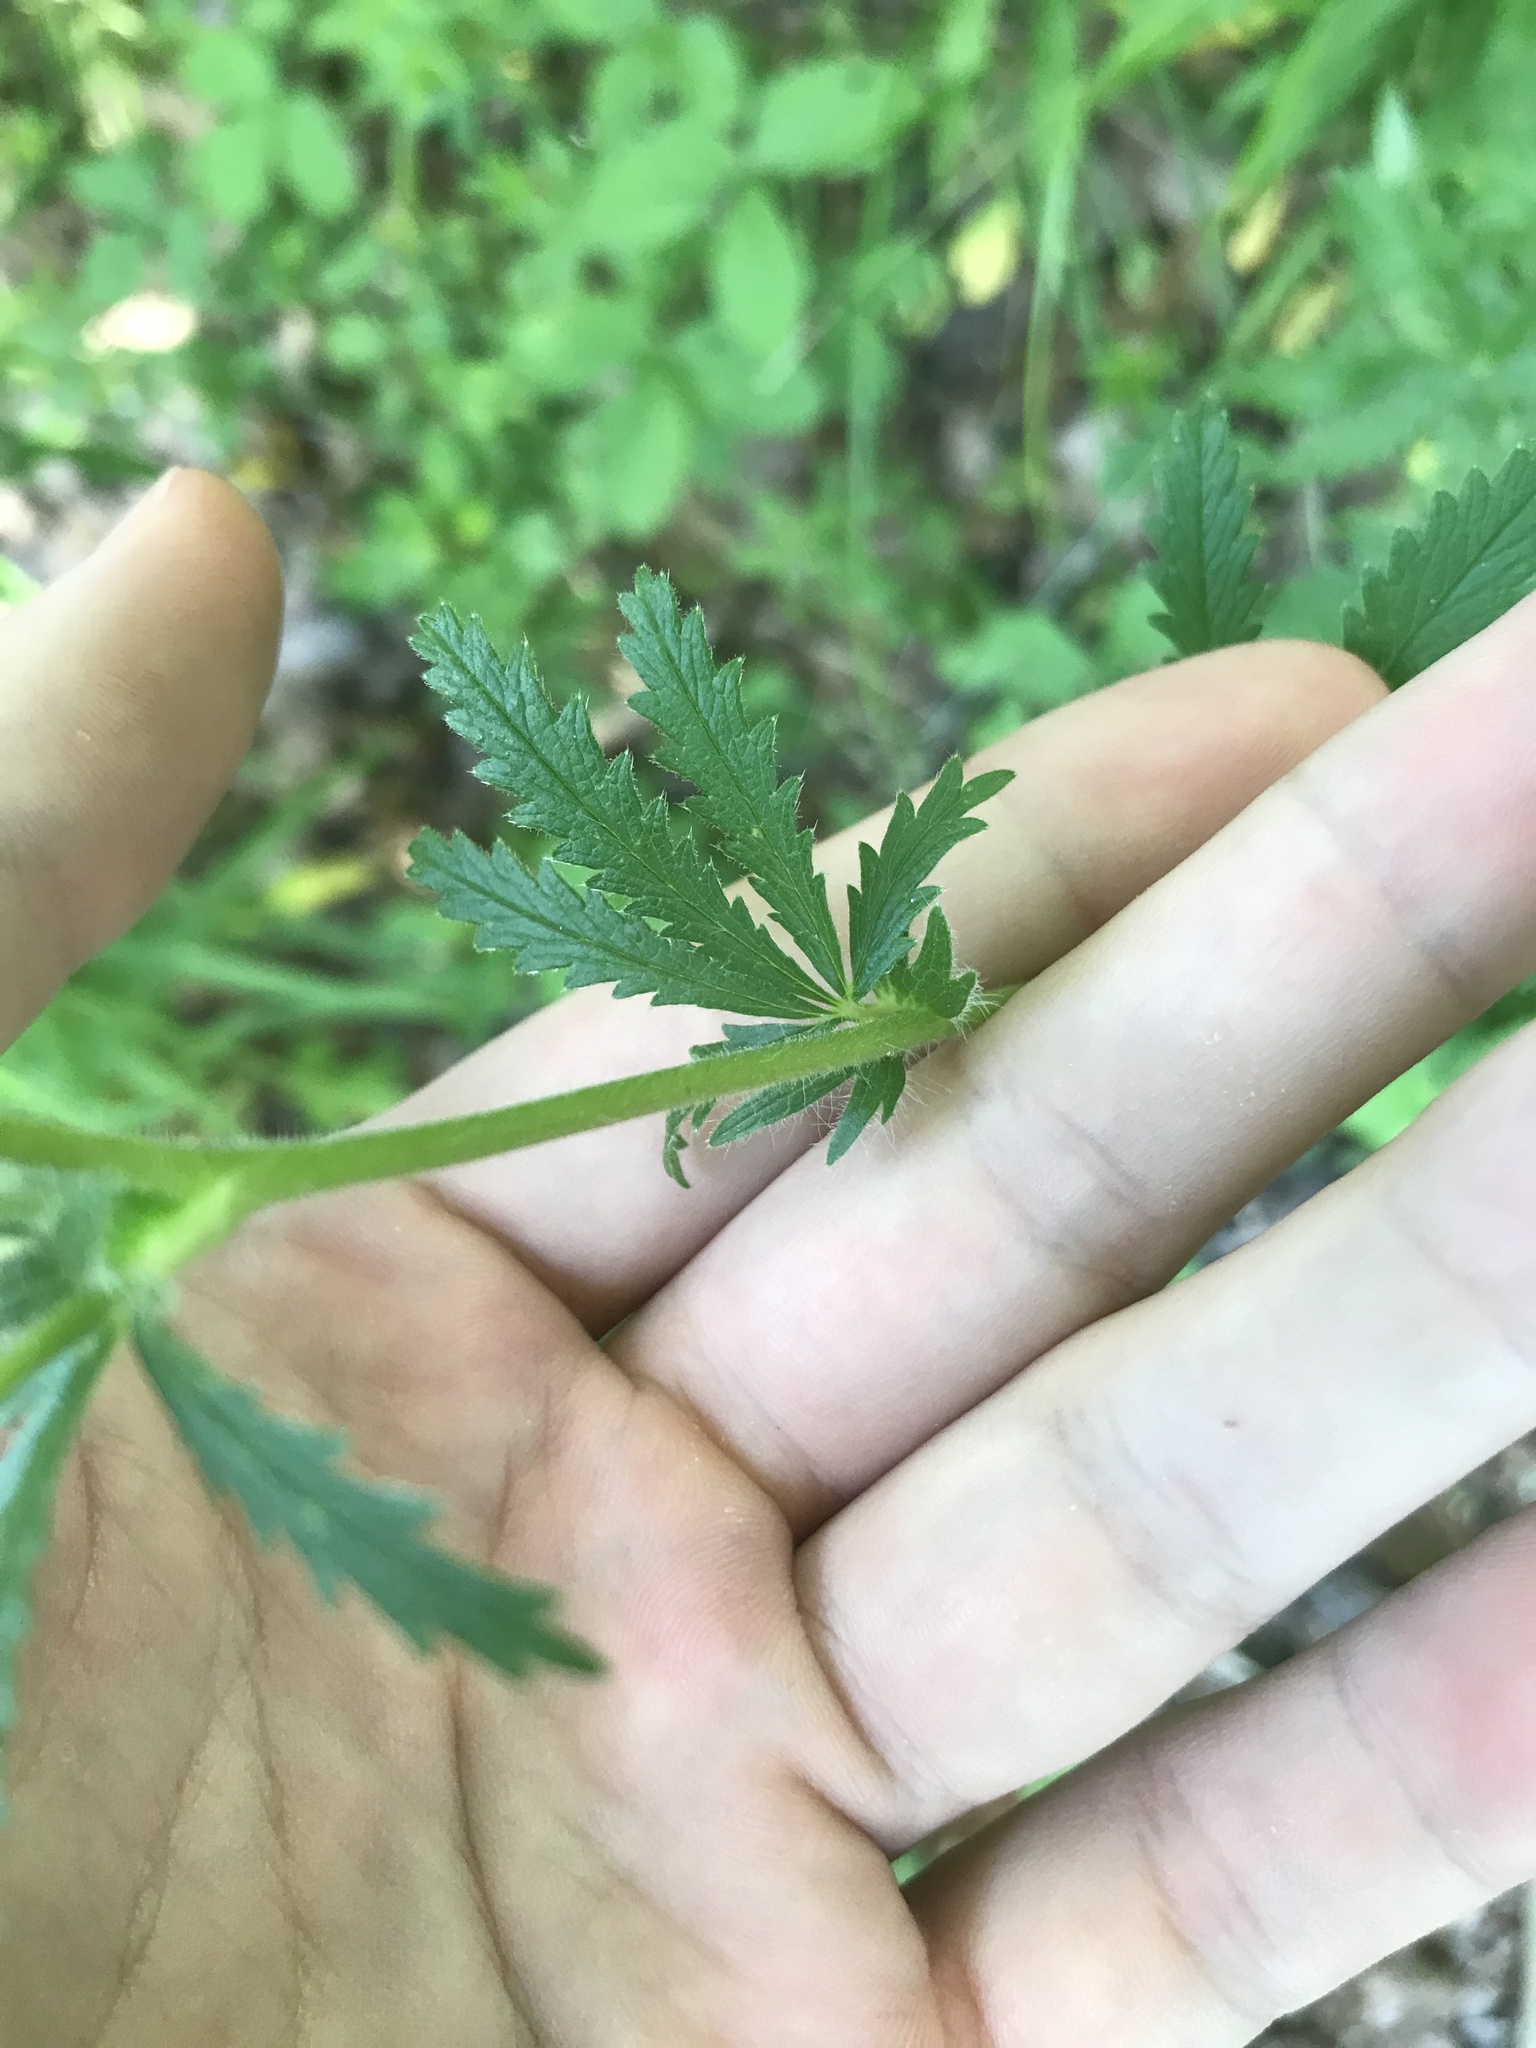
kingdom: Plantae
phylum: Tracheophyta
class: Magnoliopsida
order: Rosales
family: Rosaceae
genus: Potentilla
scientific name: Potentilla recta
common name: Sulphur cinquefoil
